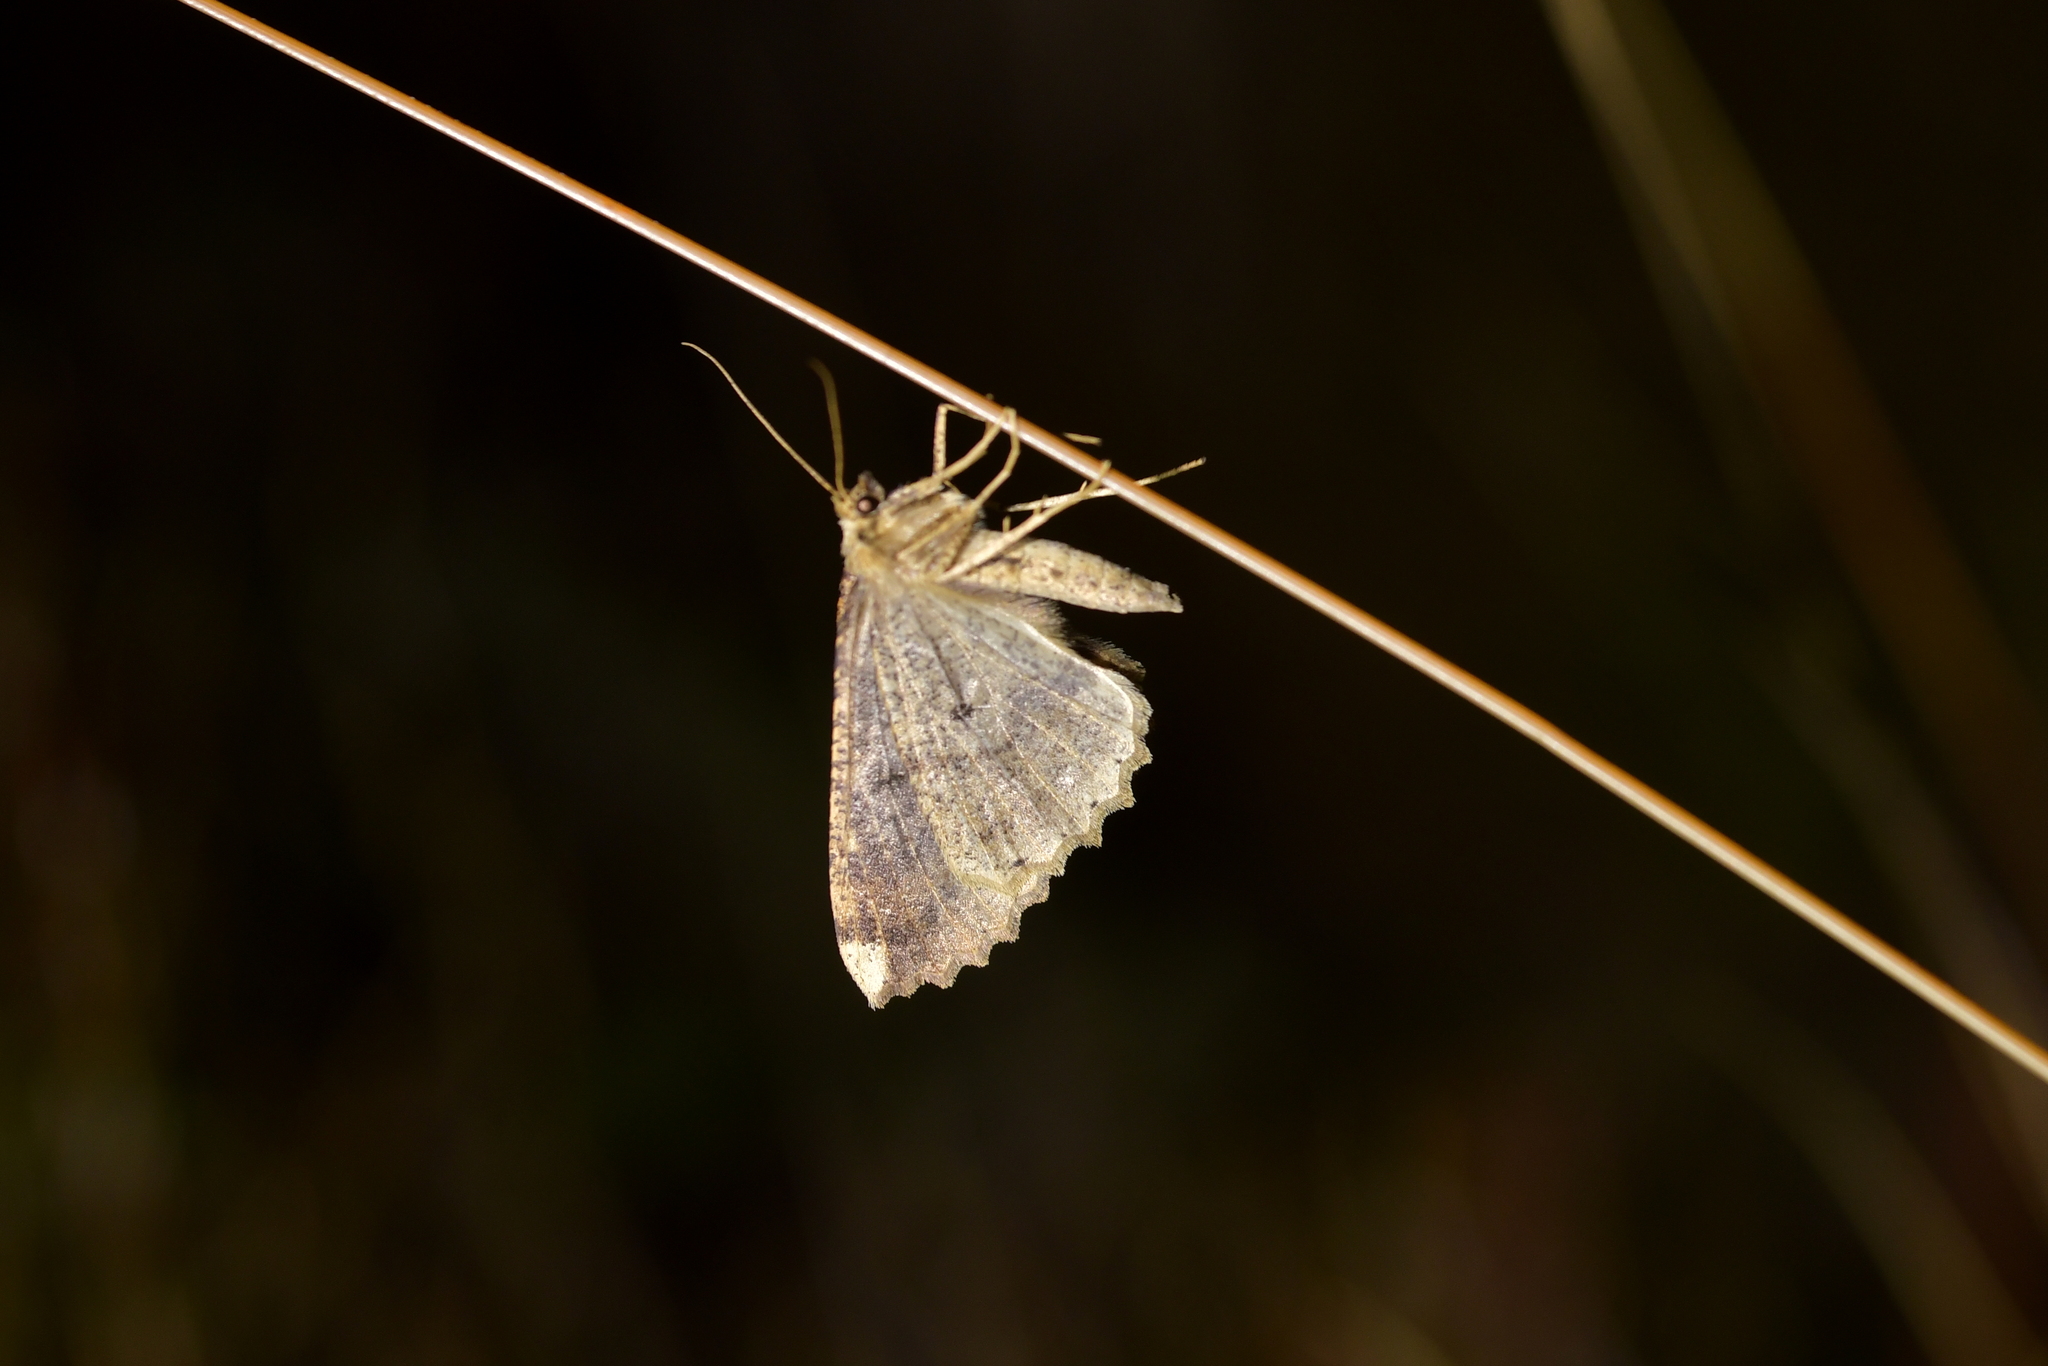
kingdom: Animalia
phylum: Arthropoda
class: Insecta
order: Lepidoptera
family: Geometridae
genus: Cleora
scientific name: Cleora scriptaria
